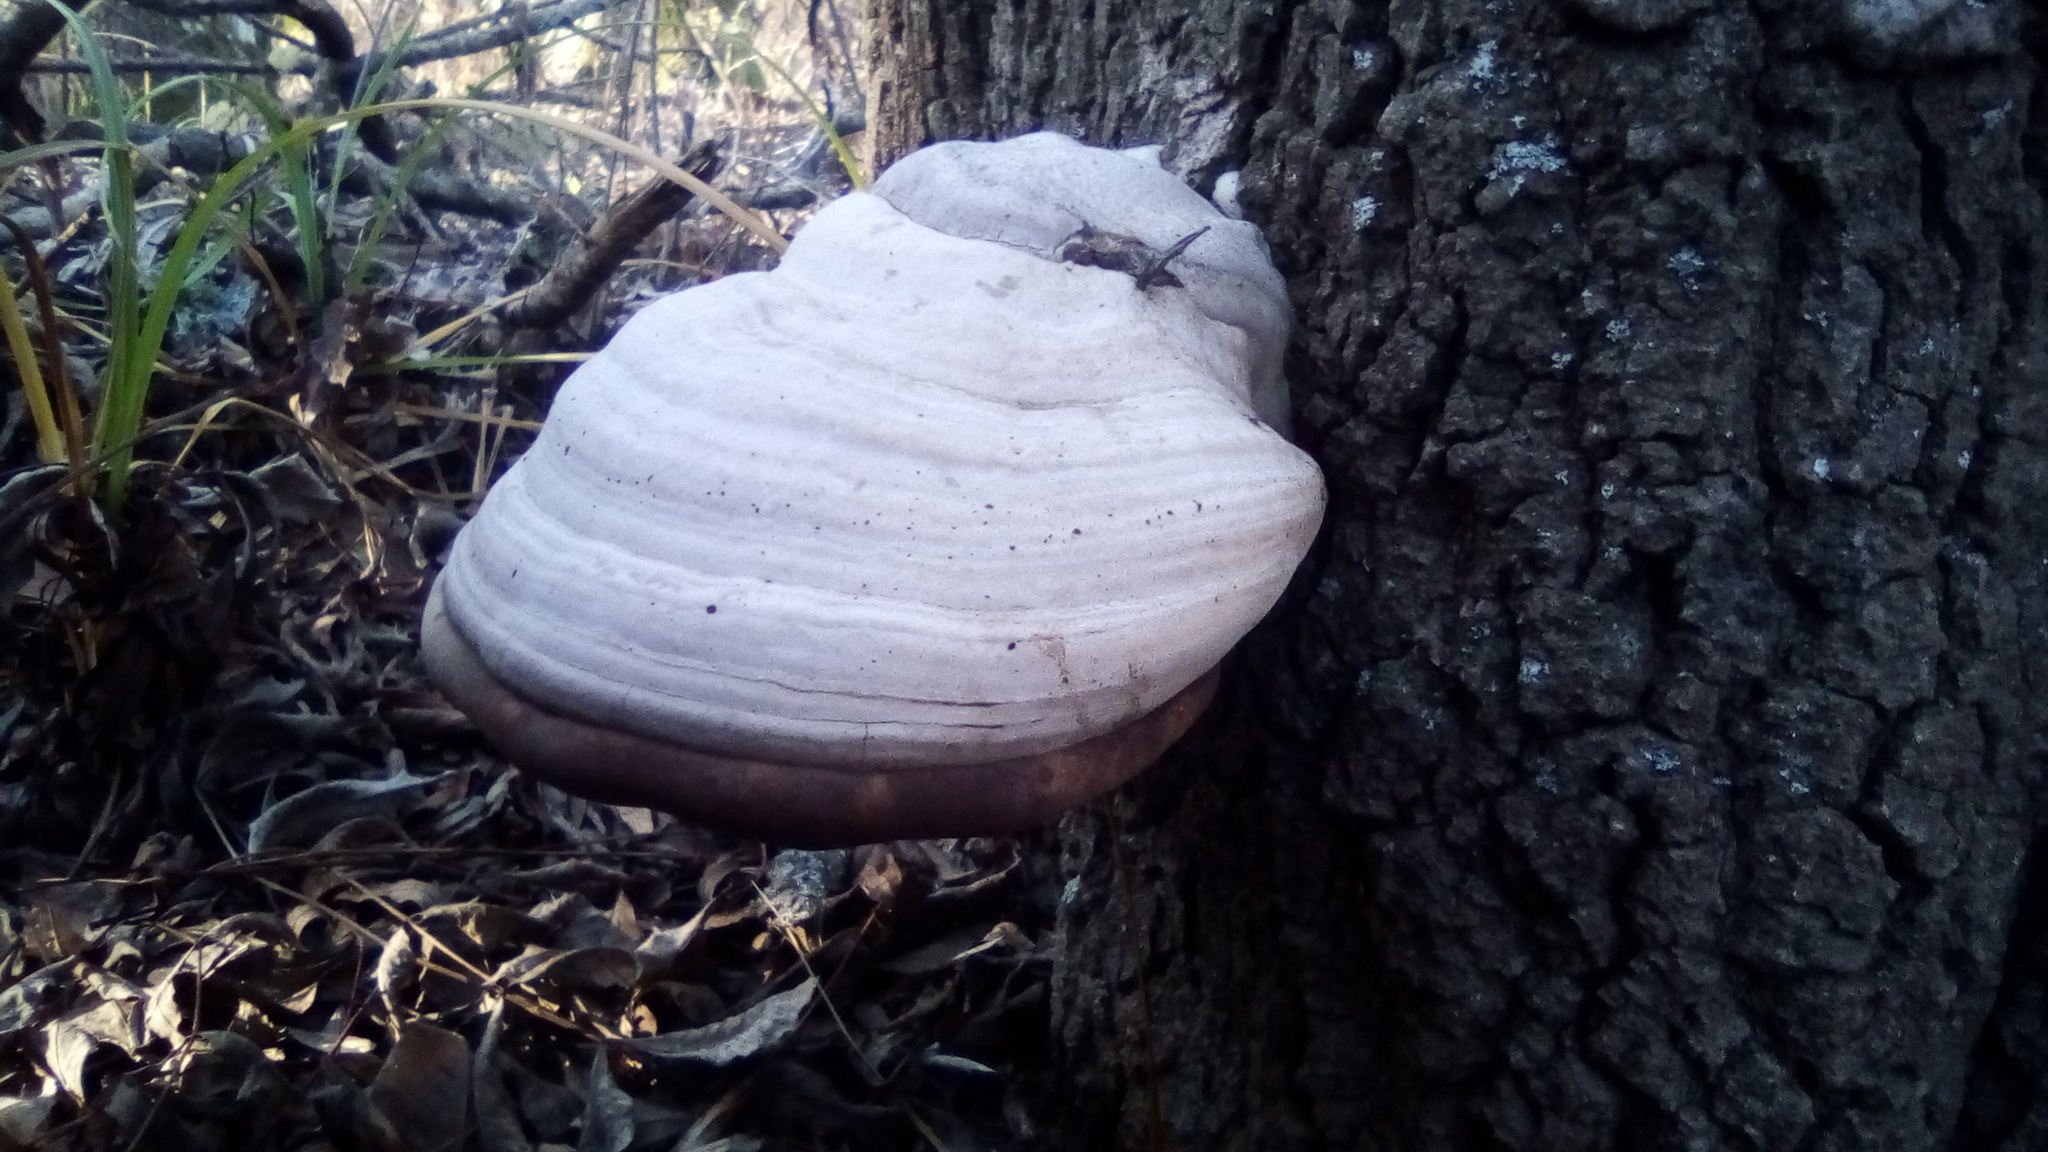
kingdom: Fungi
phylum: Basidiomycota
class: Agaricomycetes
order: Polyporales
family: Polyporaceae
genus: Fomes
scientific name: Fomes fomentarius
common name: Hoof fungus
